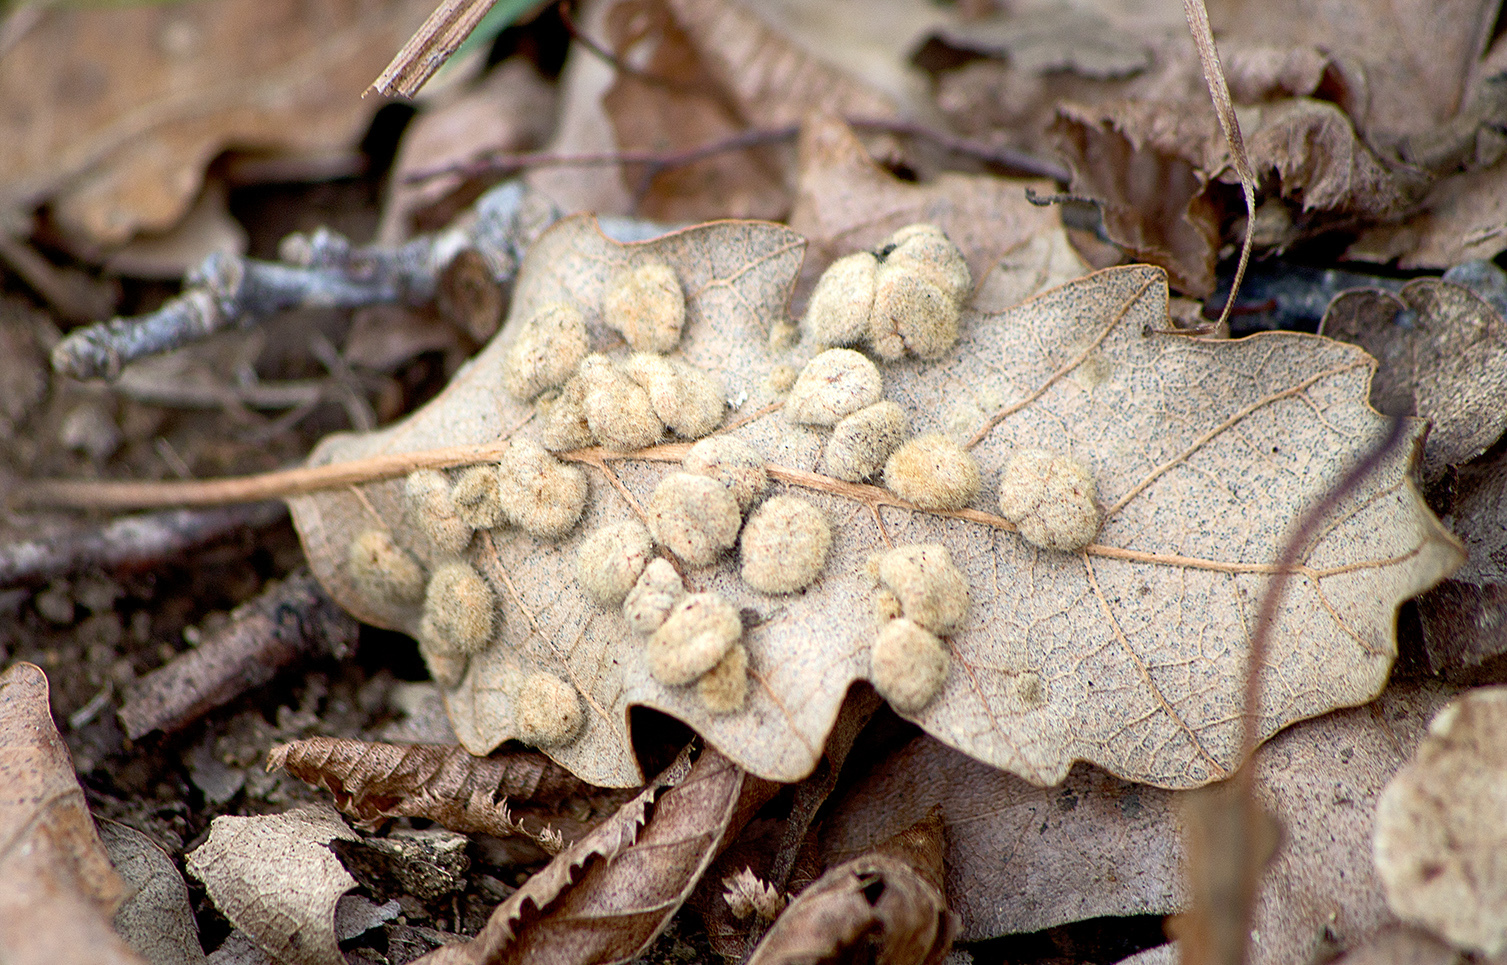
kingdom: Animalia
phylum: Arthropoda
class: Insecta
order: Diptera
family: Cecidomyiidae
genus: Dryomyia
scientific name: Dryomyia circinans
